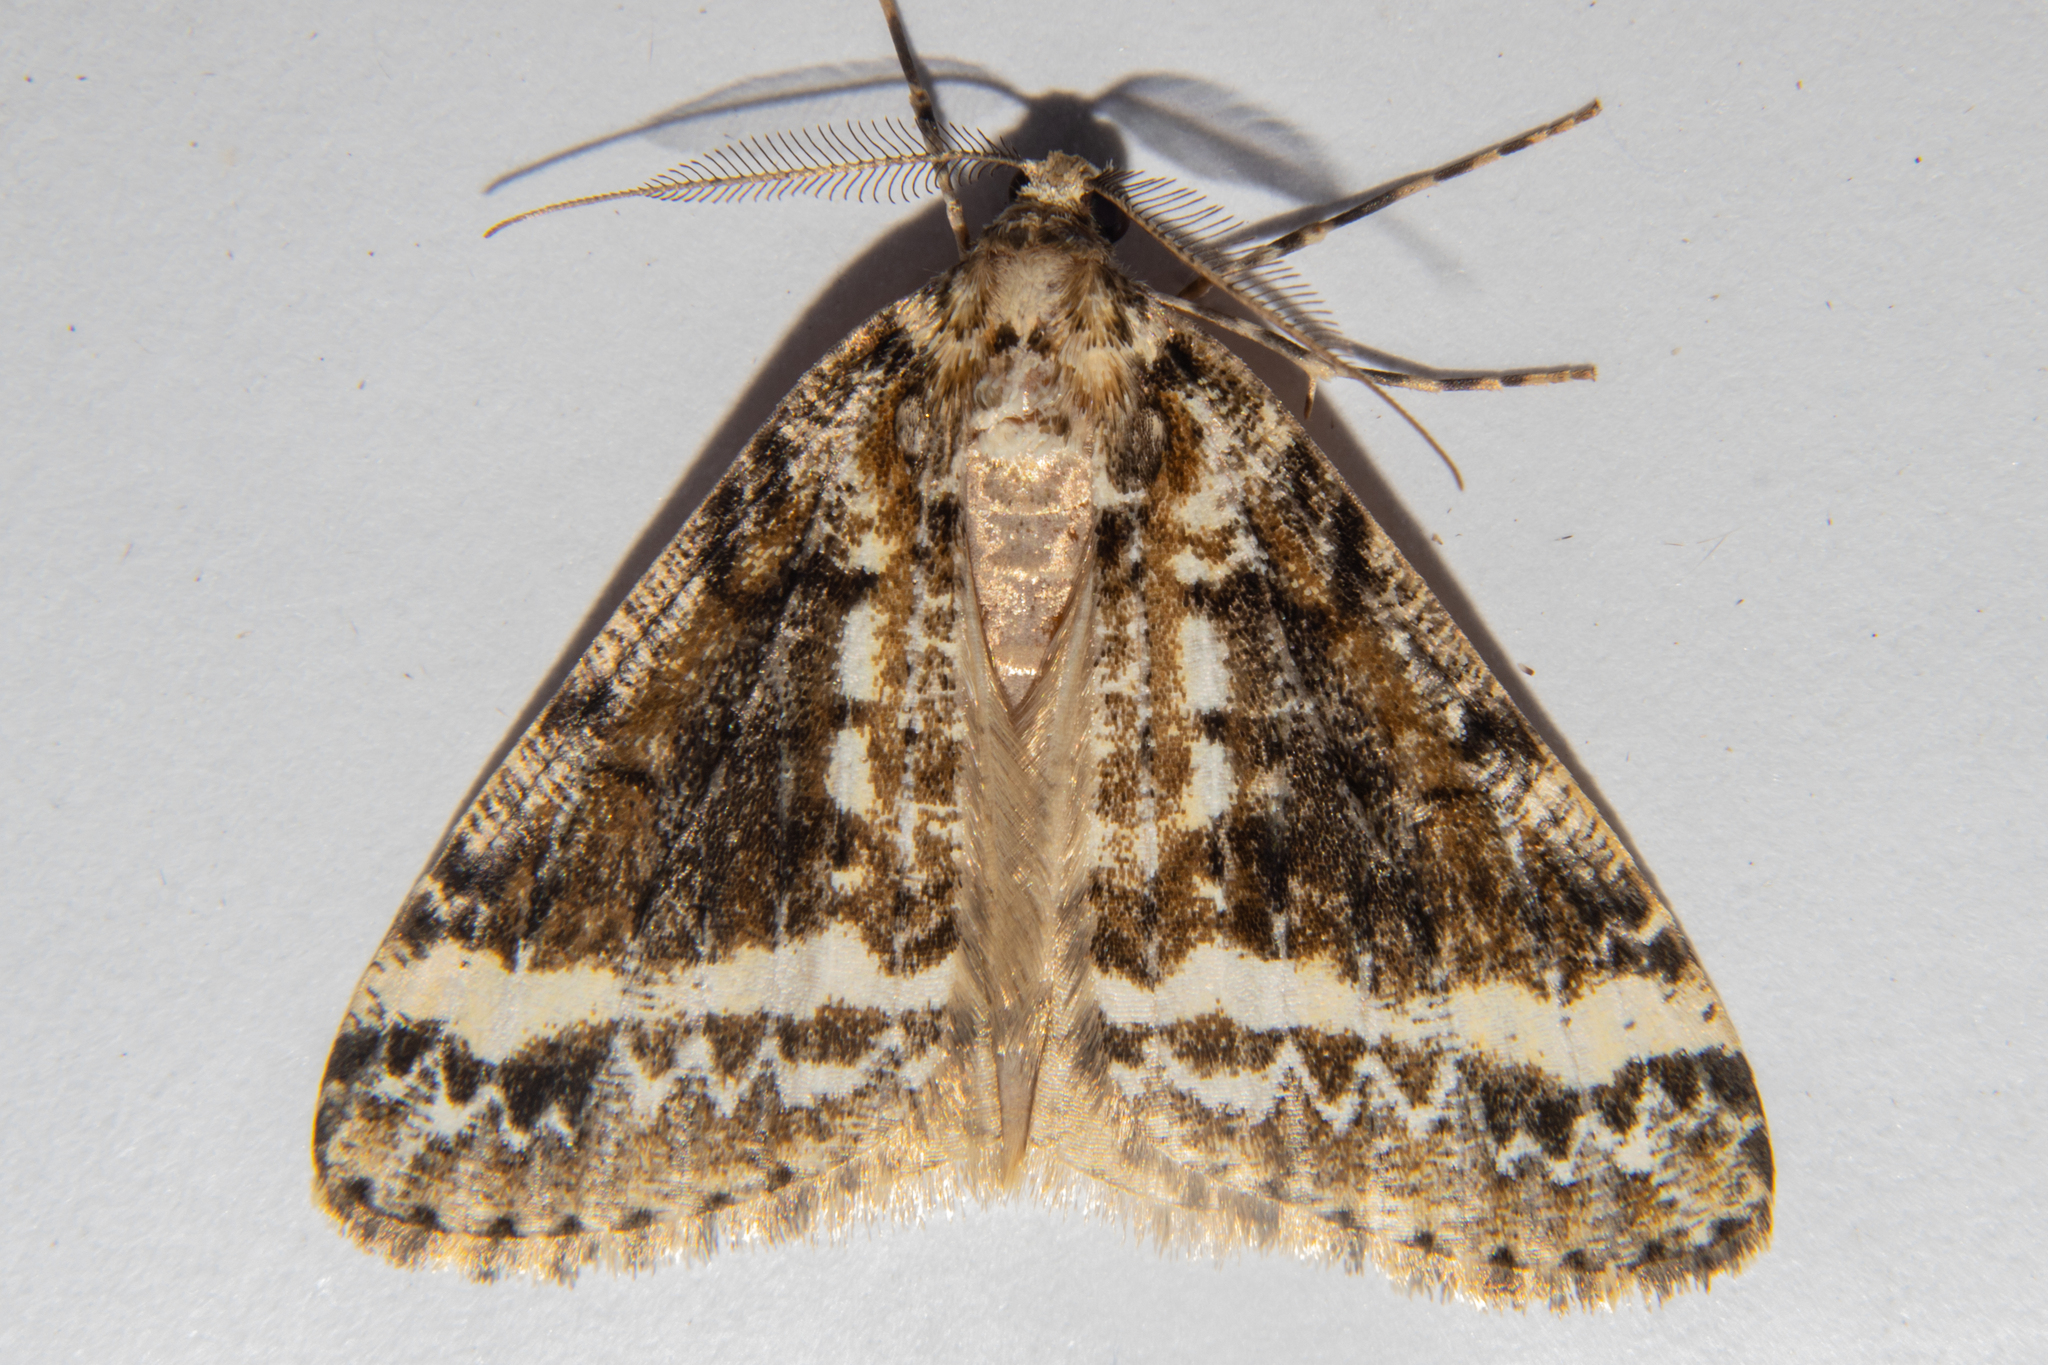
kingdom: Animalia
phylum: Arthropoda
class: Insecta
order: Lepidoptera
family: Geometridae
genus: Pseudocoremia
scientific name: Pseudocoremia leucelaea
